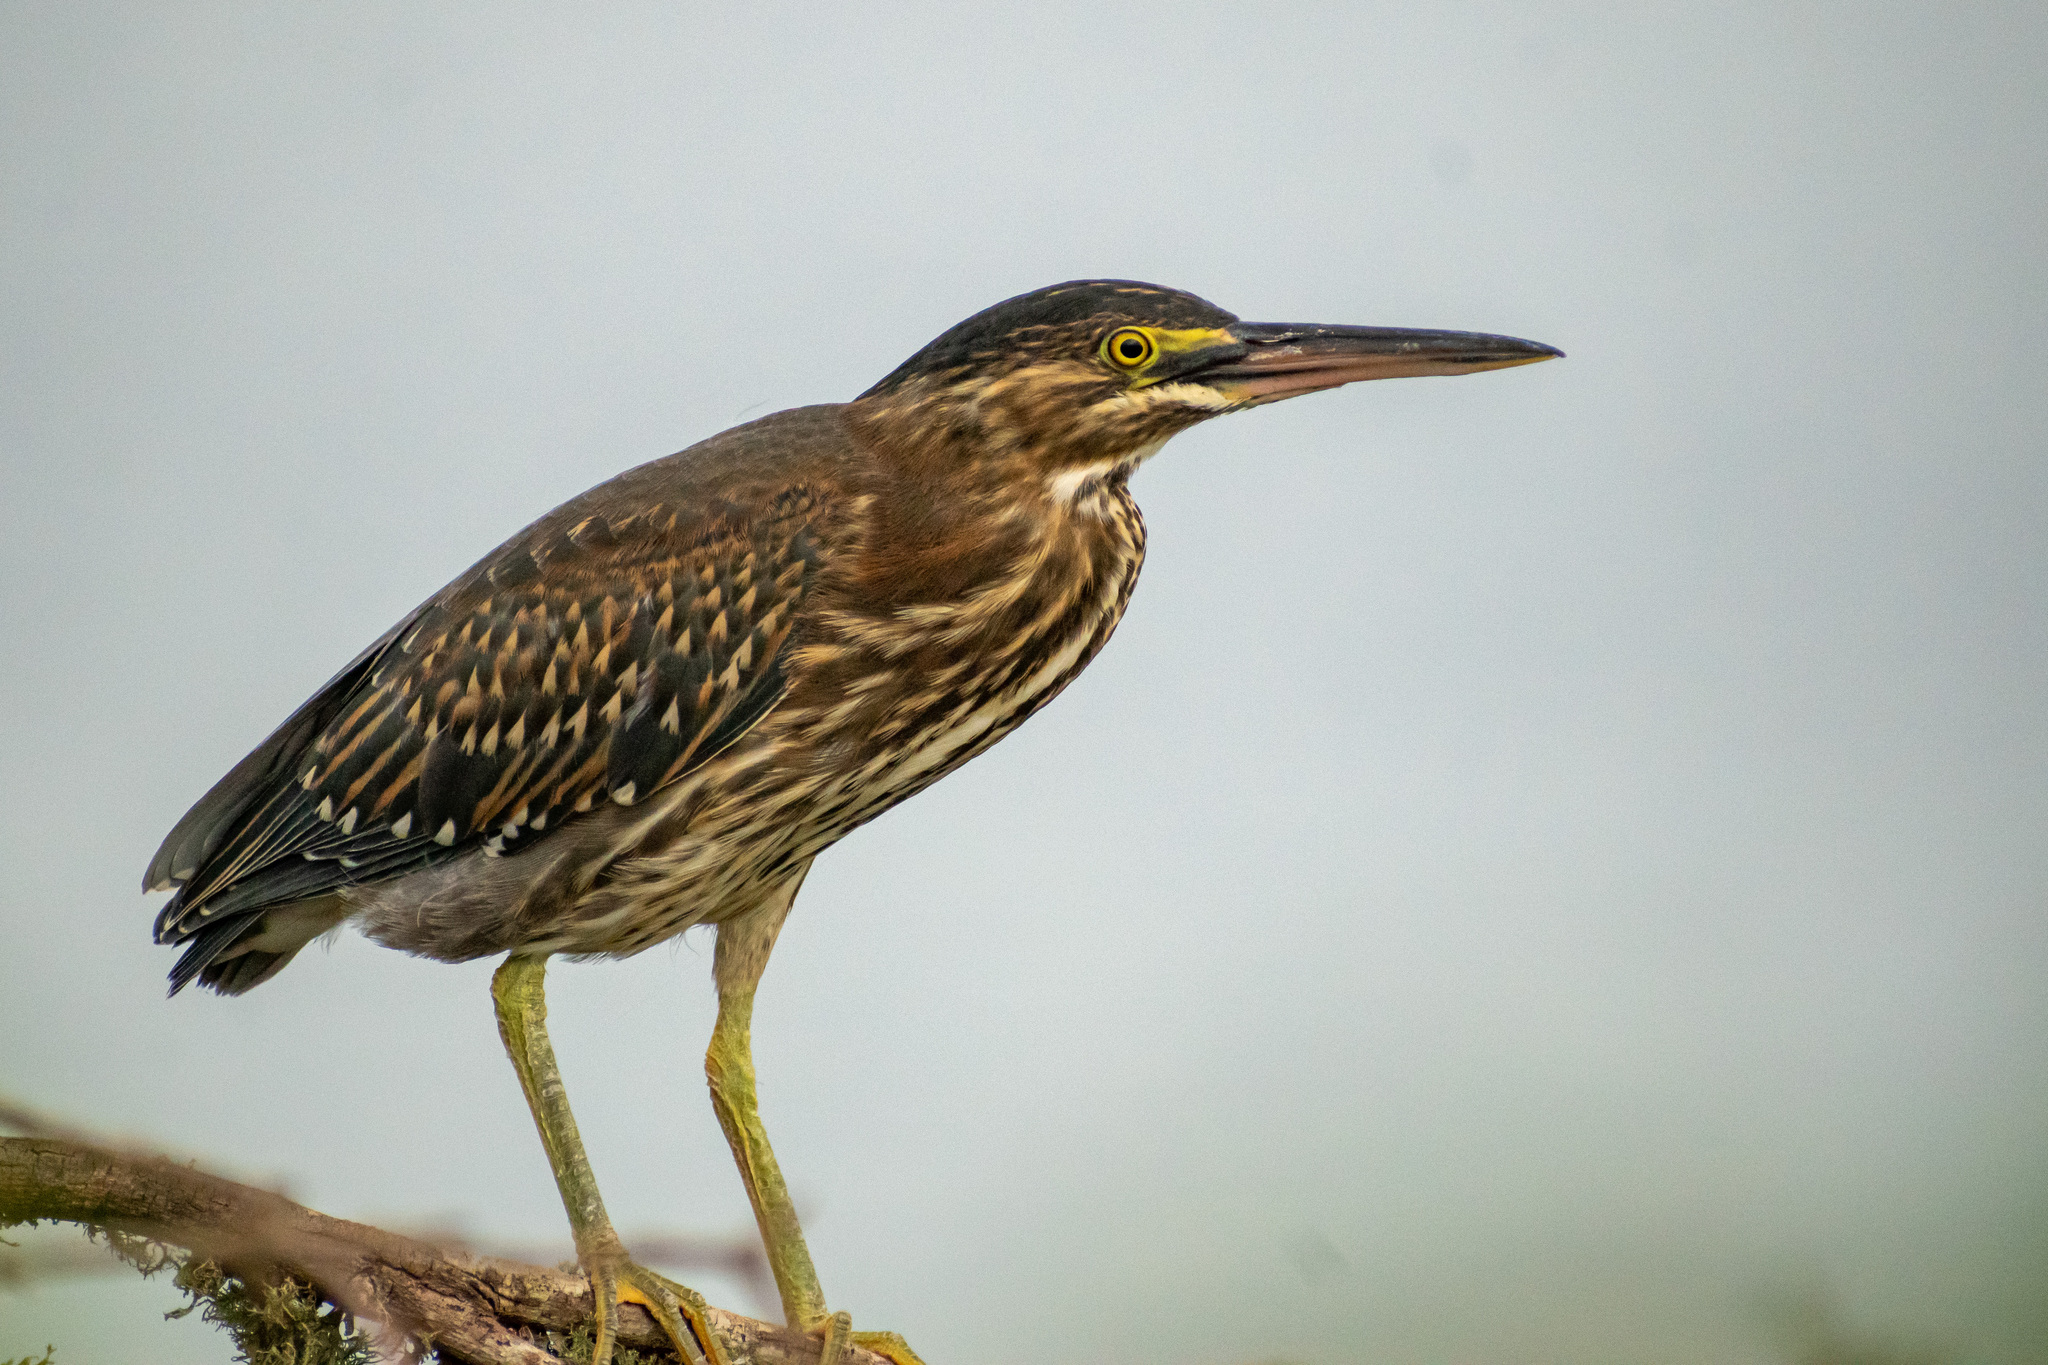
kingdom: Animalia
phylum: Chordata
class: Aves
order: Pelecaniformes
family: Ardeidae
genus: Butorides
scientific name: Butorides striata
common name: Striated heron
